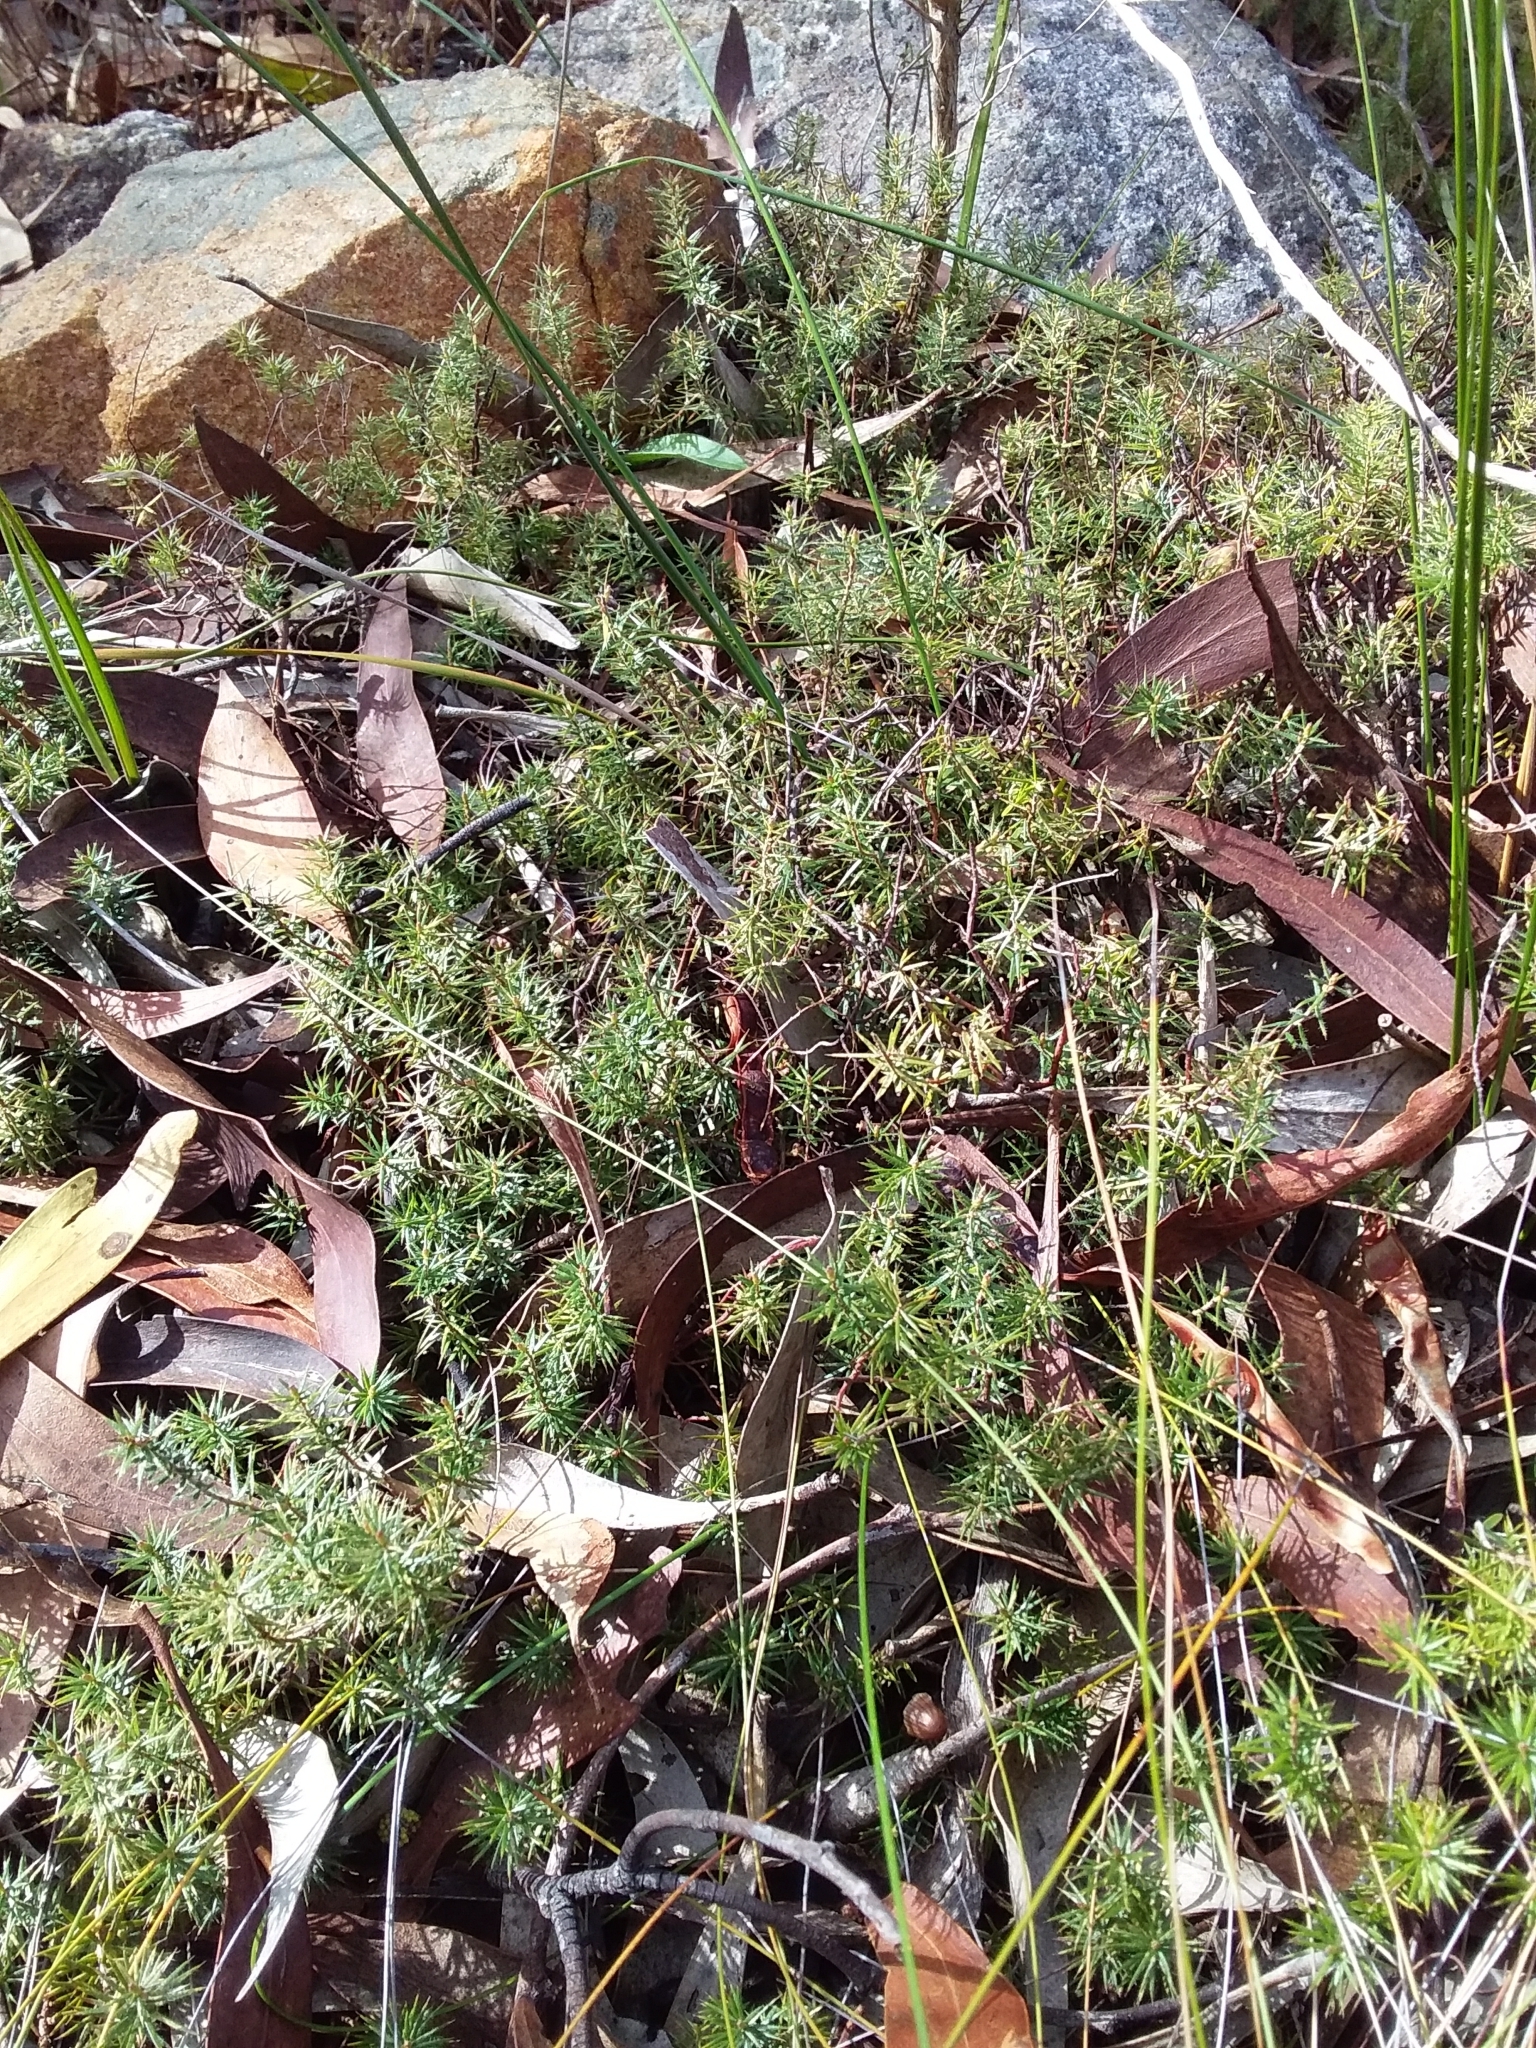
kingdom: Plantae
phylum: Tracheophyta
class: Magnoliopsida
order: Ericales
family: Ericaceae
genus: Acrotriche
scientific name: Acrotriche serrulata
